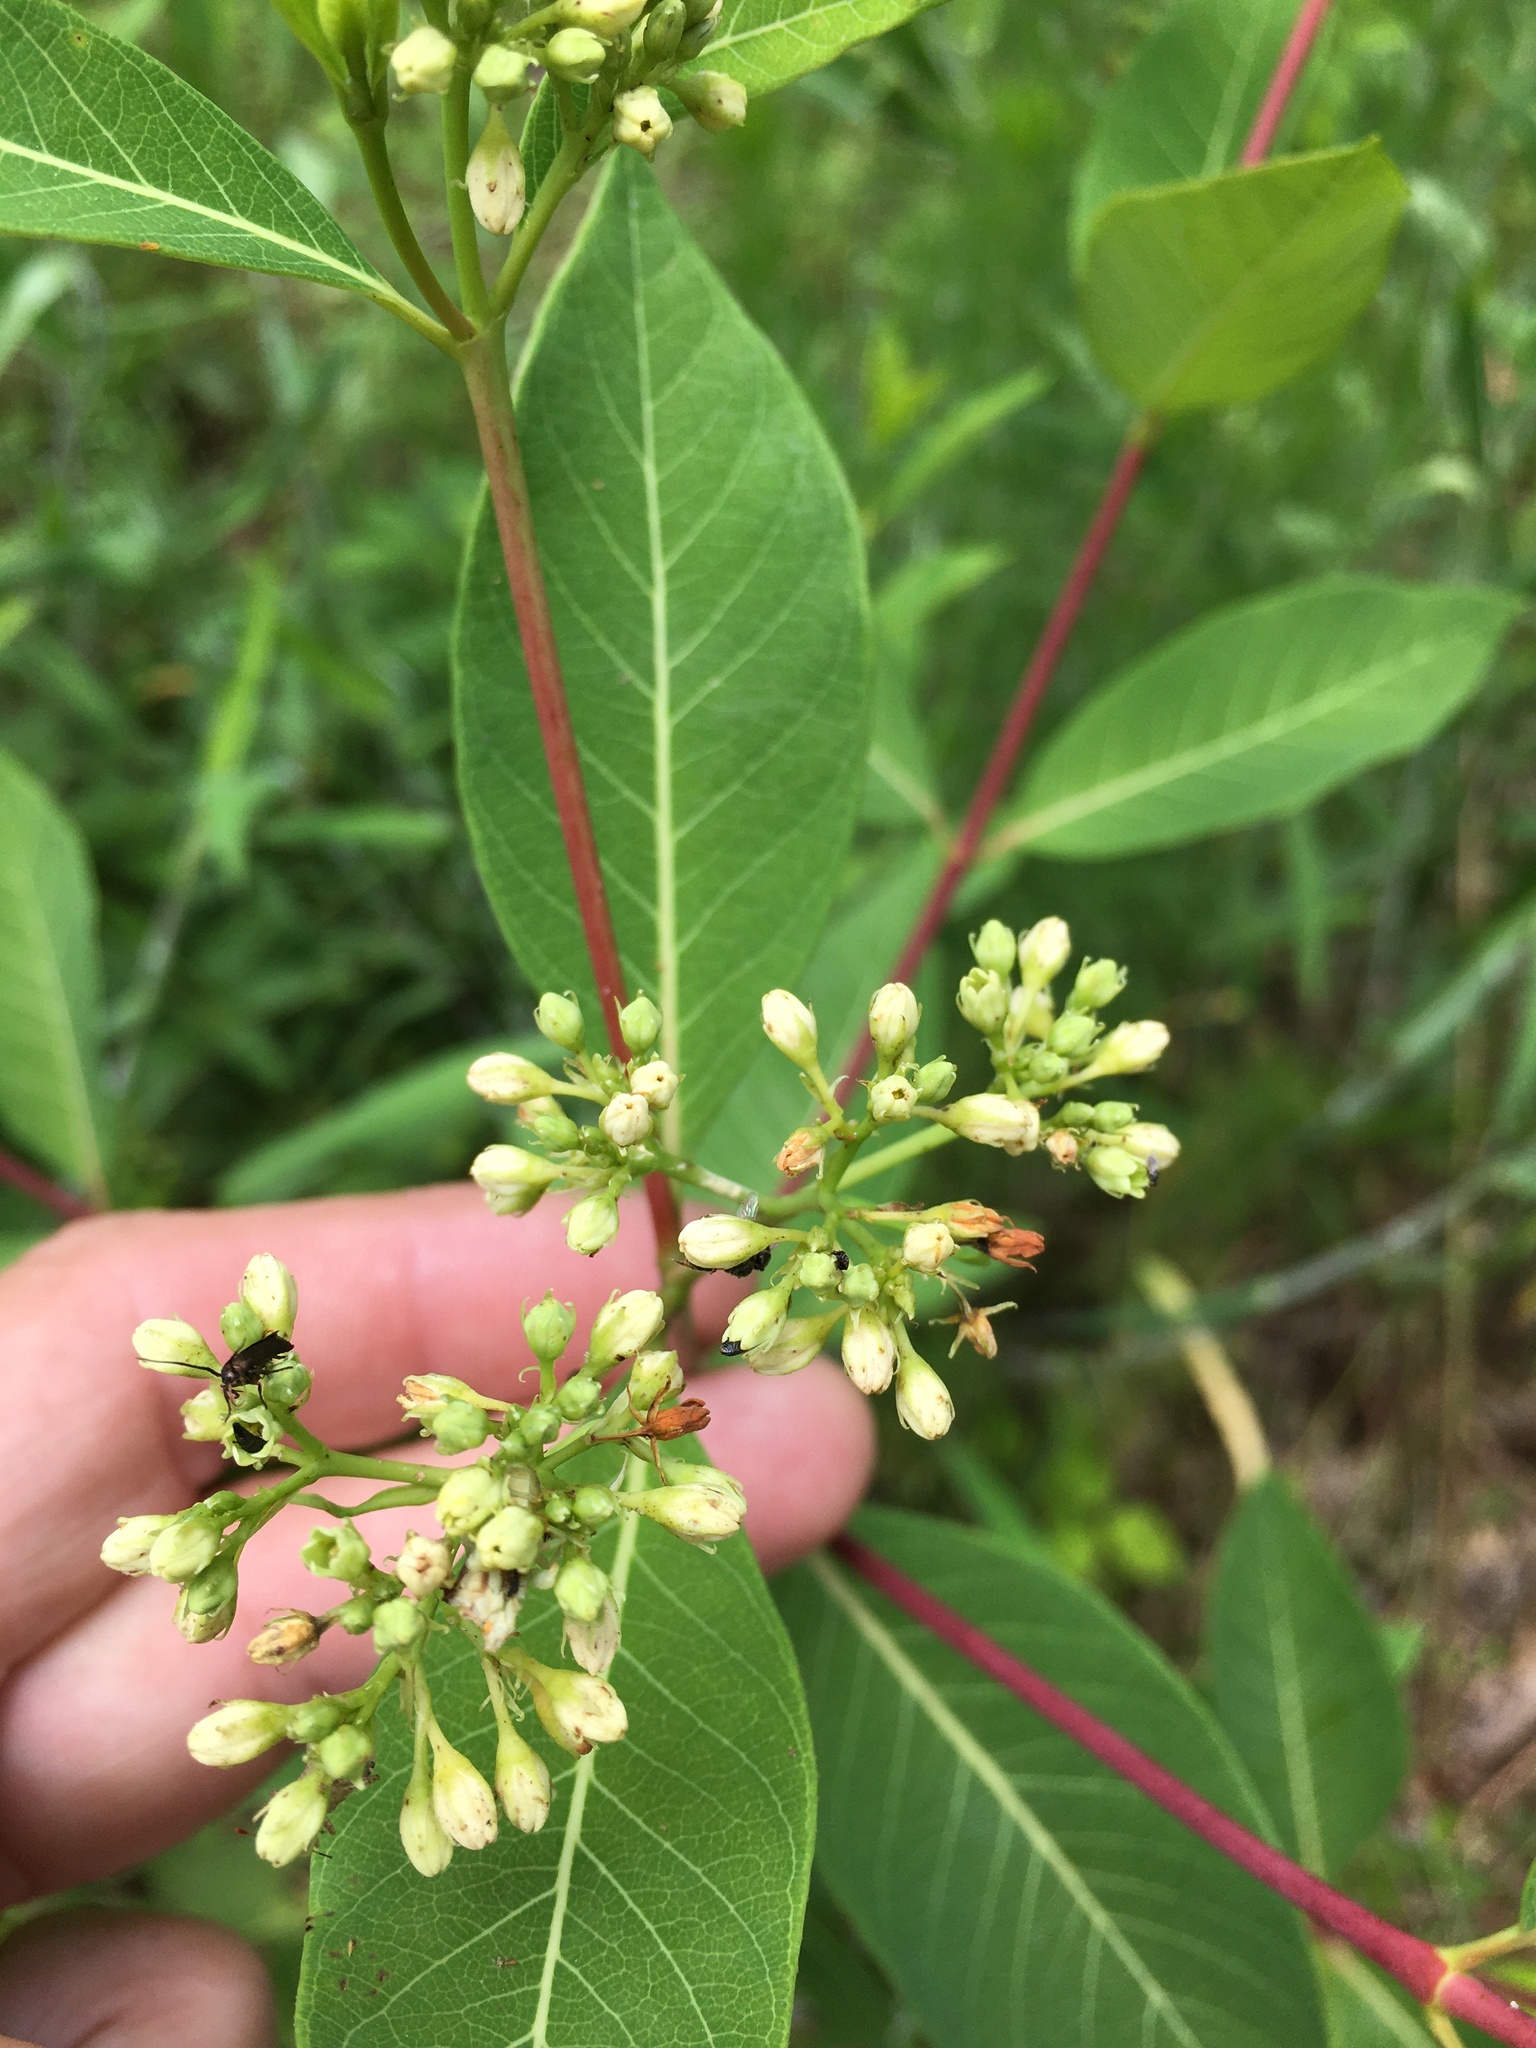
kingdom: Plantae
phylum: Tracheophyta
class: Magnoliopsida
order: Gentianales
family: Apocynaceae
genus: Apocynum
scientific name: Apocynum cannabinum
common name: Hemp dogbane
